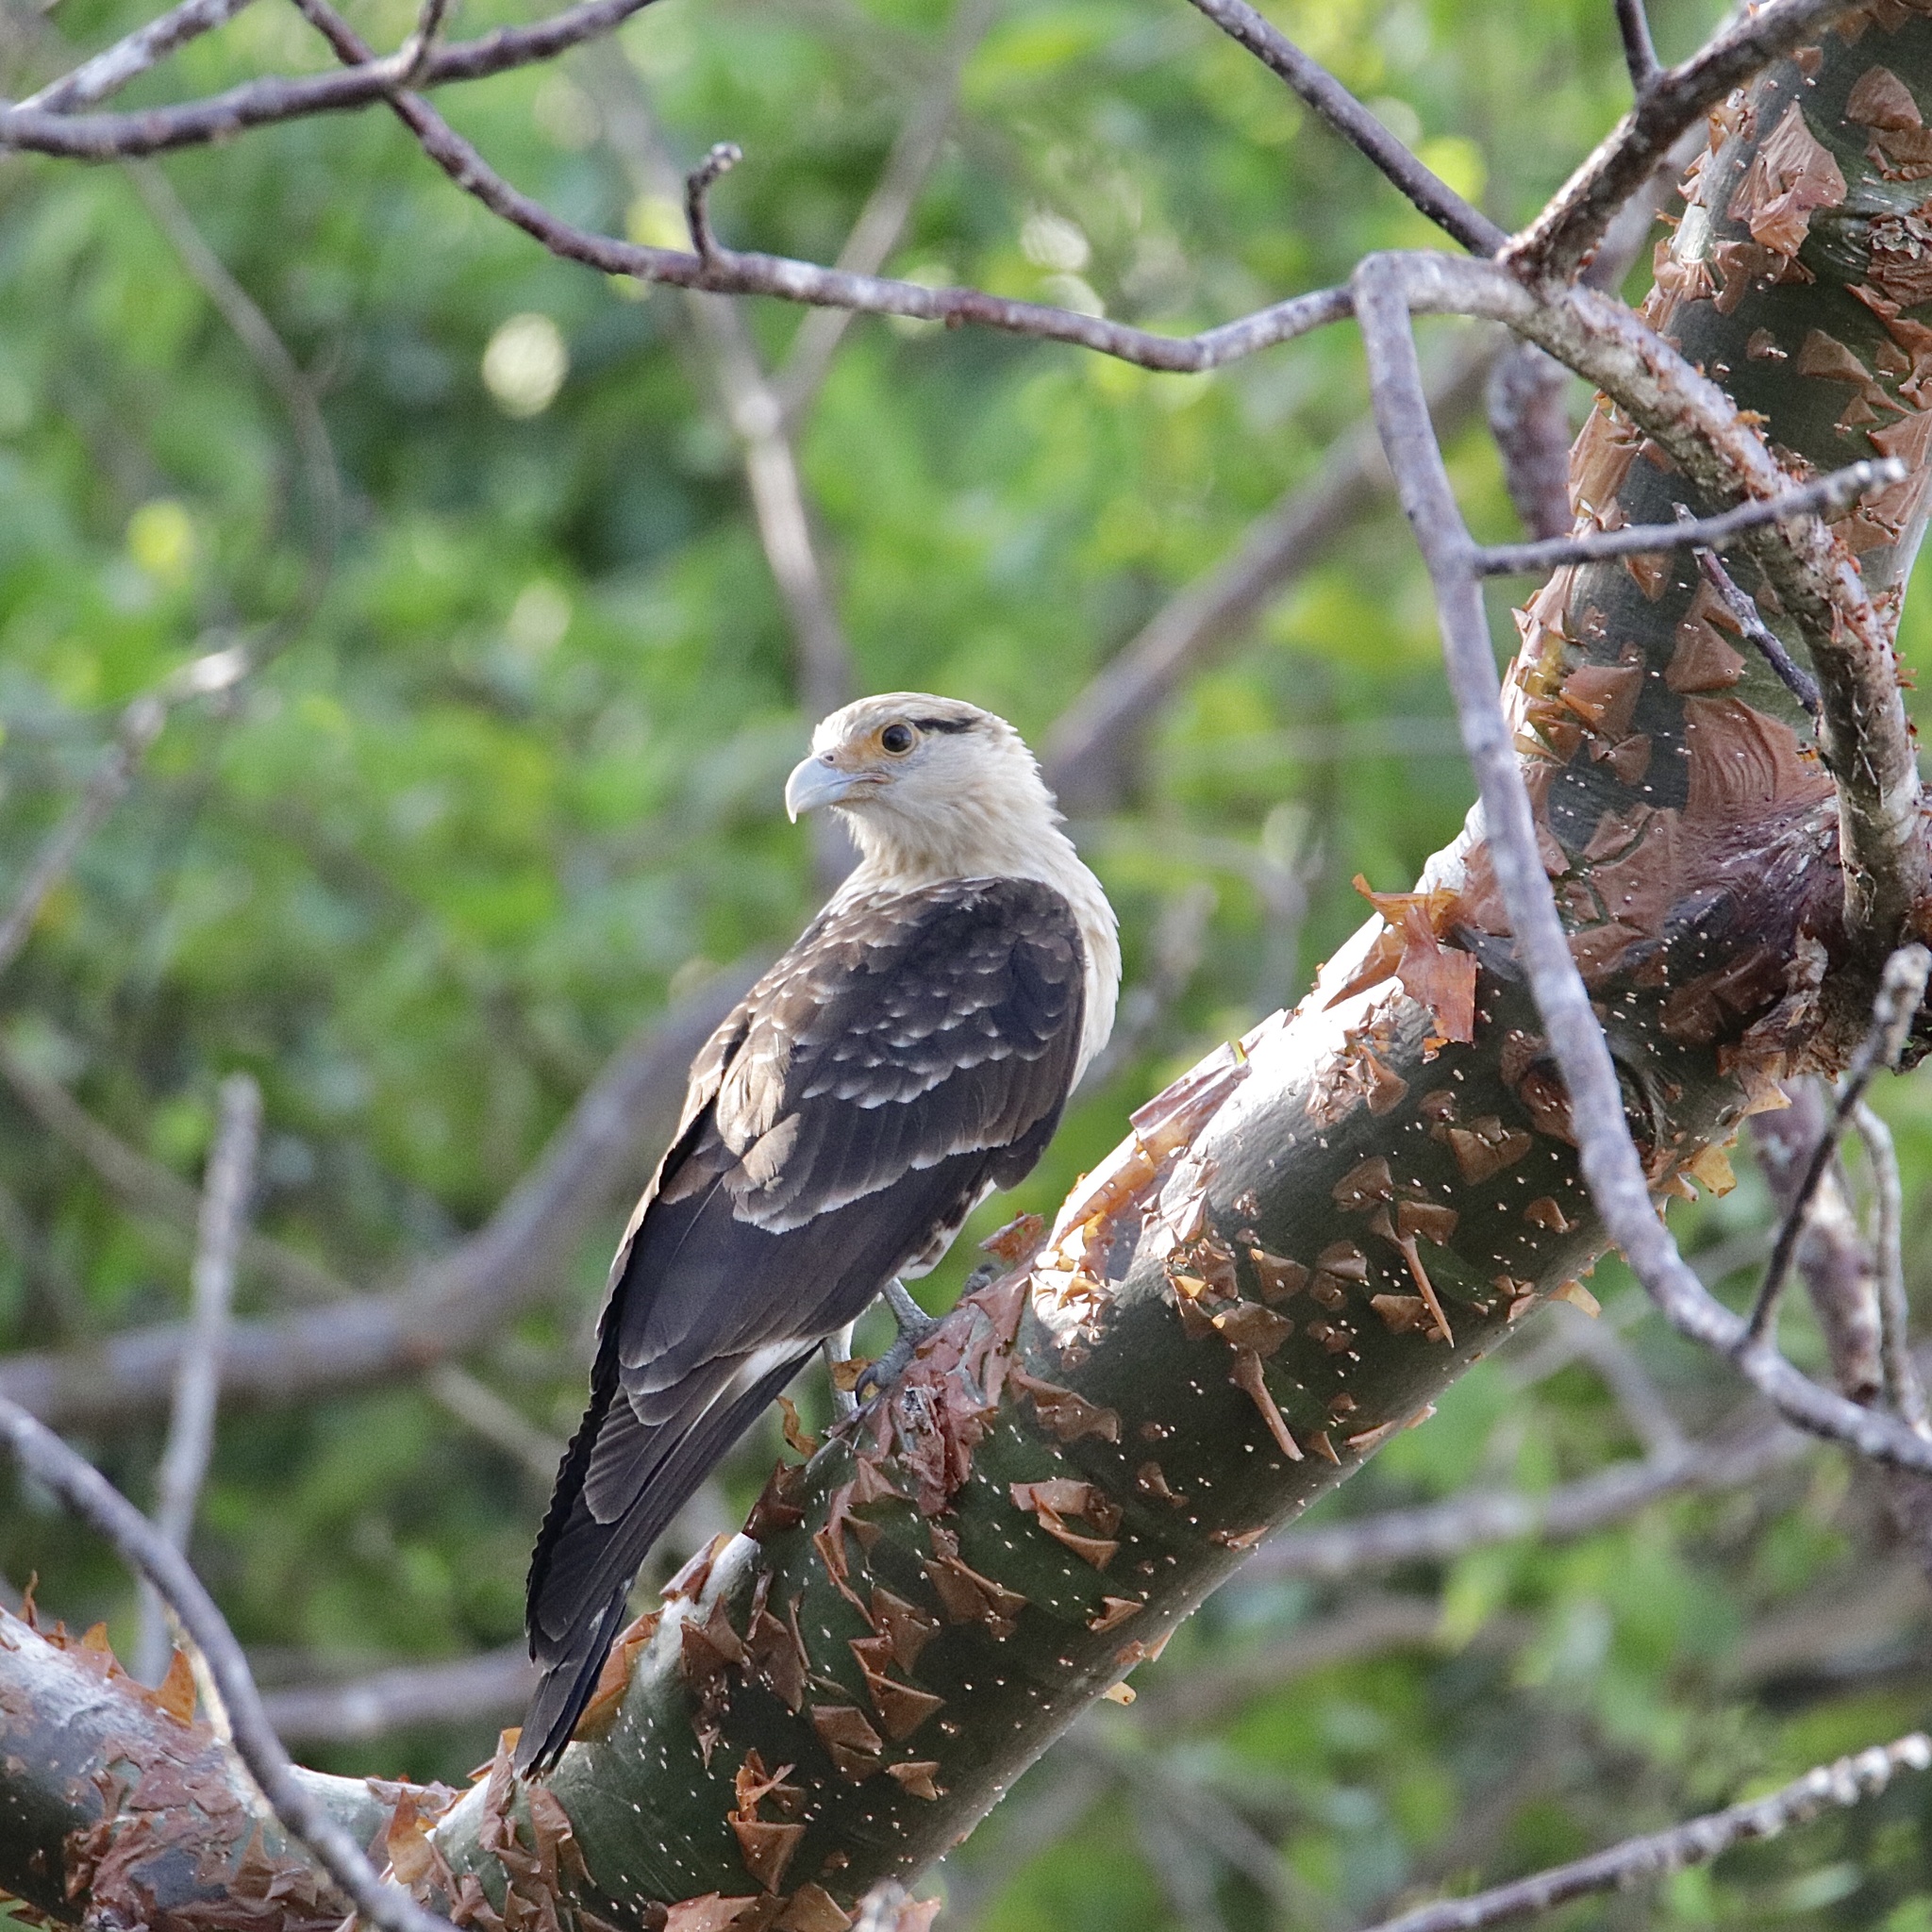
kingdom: Animalia
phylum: Chordata
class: Aves
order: Falconiformes
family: Falconidae
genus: Daptrius
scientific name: Daptrius
